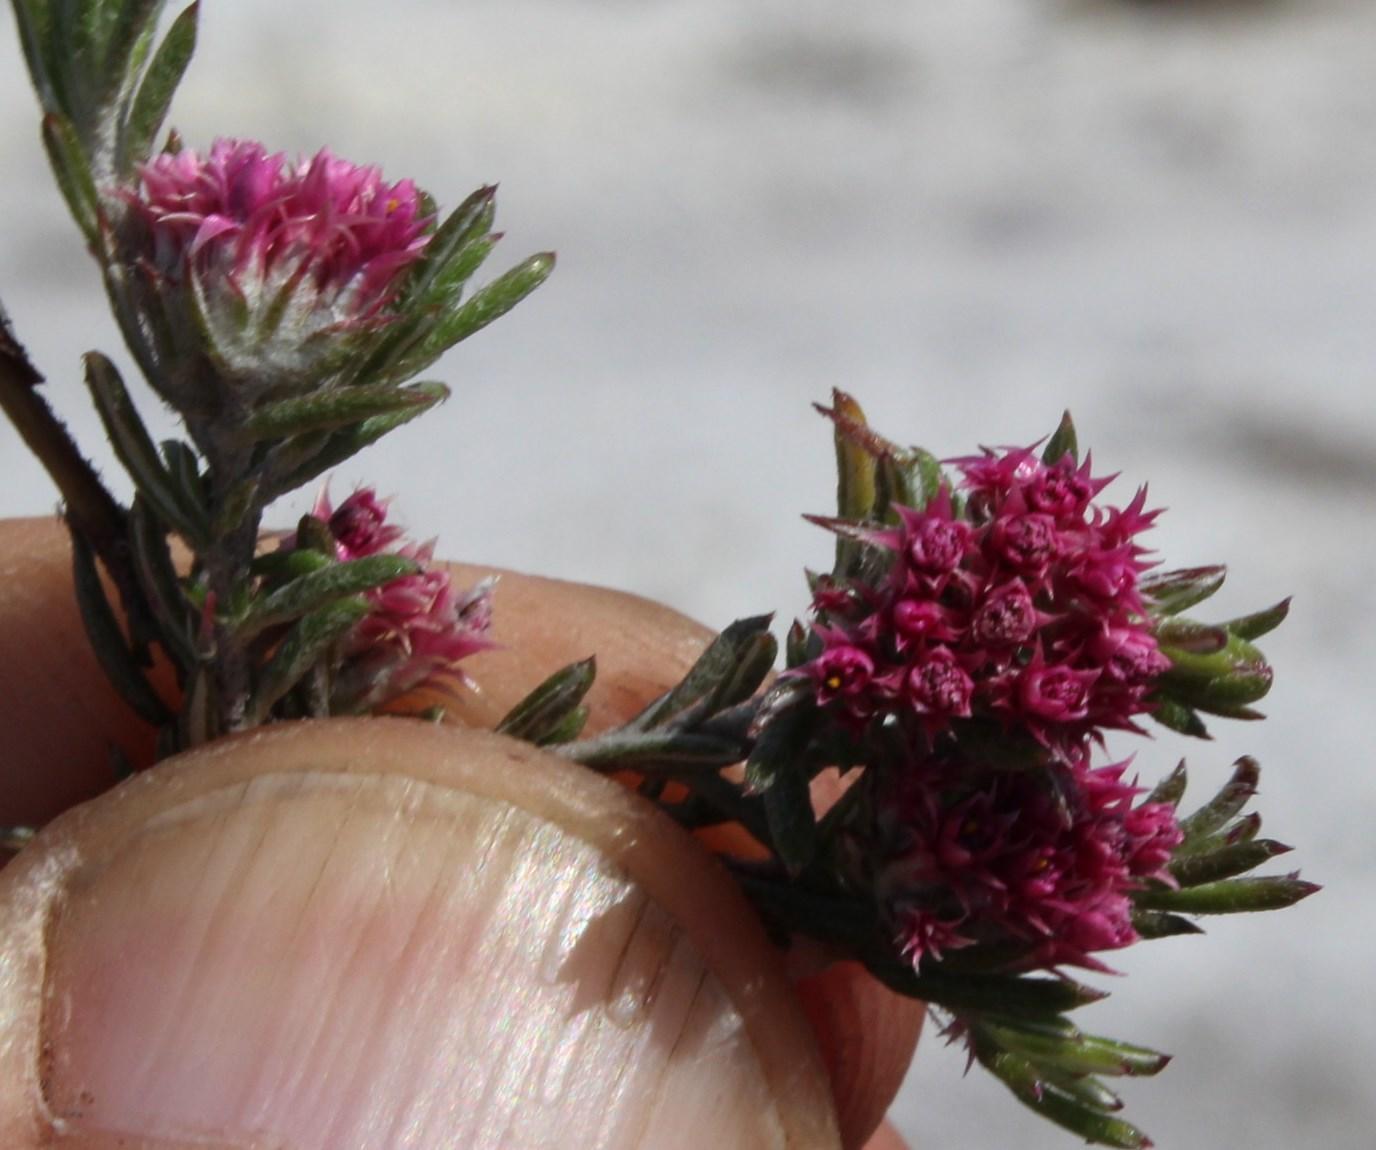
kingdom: Plantae
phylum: Tracheophyta
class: Magnoliopsida
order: Asterales
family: Asteraceae
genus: Metalasia
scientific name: Metalasia cephalotes
